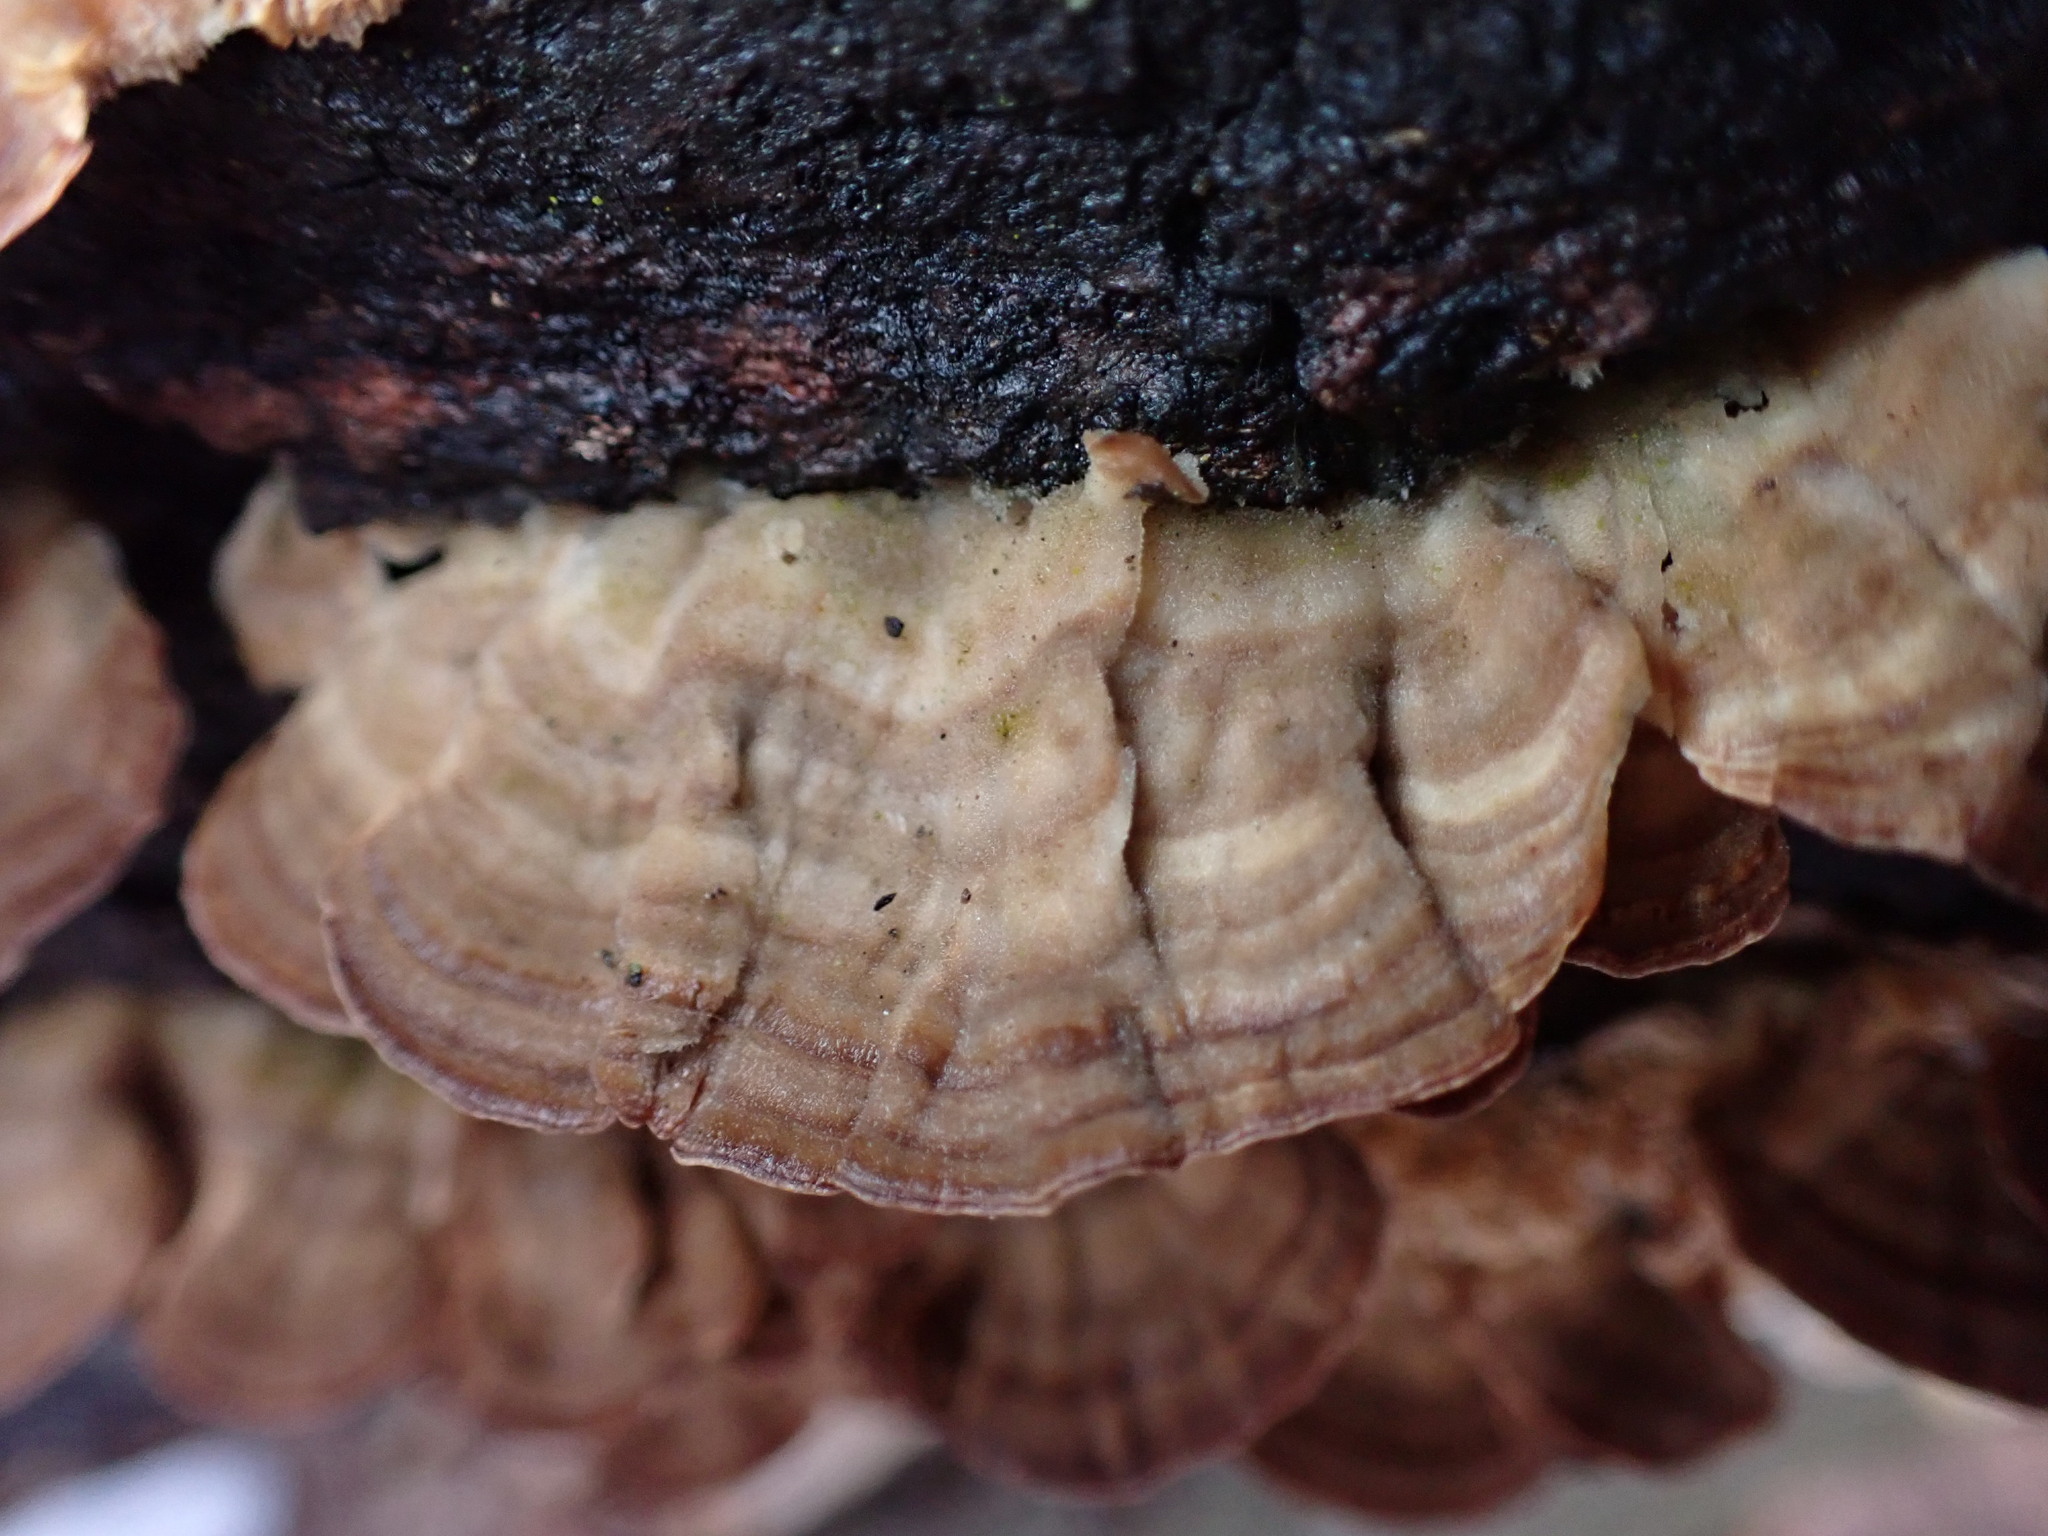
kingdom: Fungi
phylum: Basidiomycota
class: Agaricomycetes
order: Hymenochaetales
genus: Trichaptum
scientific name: Trichaptum biforme
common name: Violet-toothed polypore
